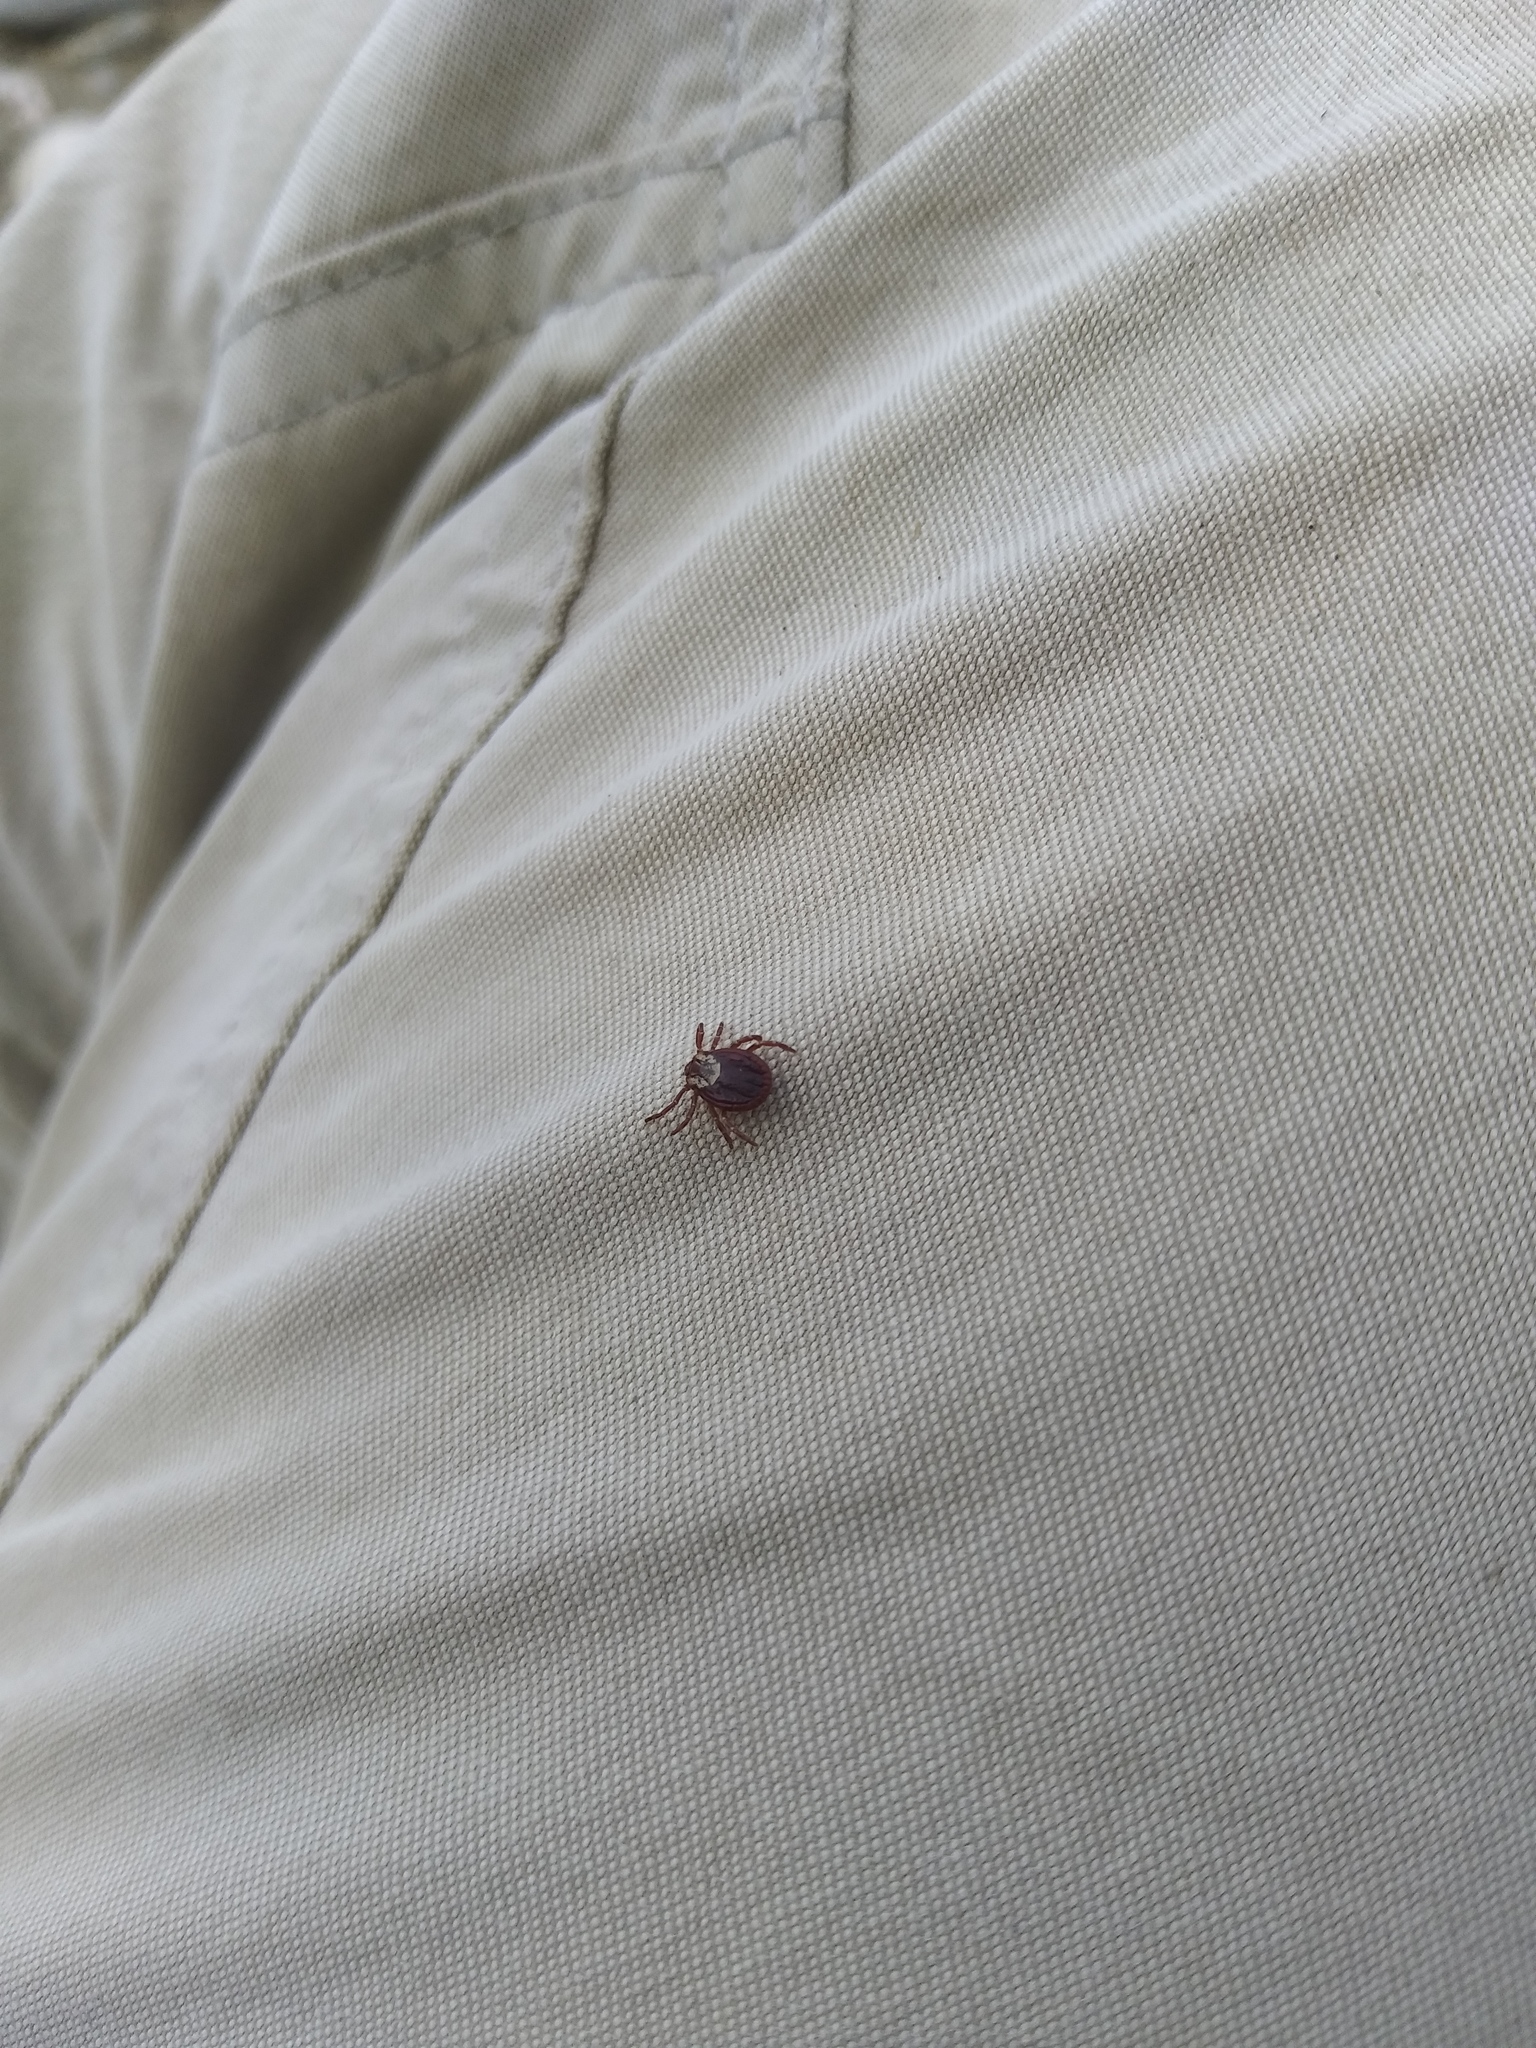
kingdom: Animalia
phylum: Arthropoda
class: Arachnida
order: Ixodida
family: Ixodidae
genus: Dermacentor
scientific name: Dermacentor variabilis
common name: American dog tick
